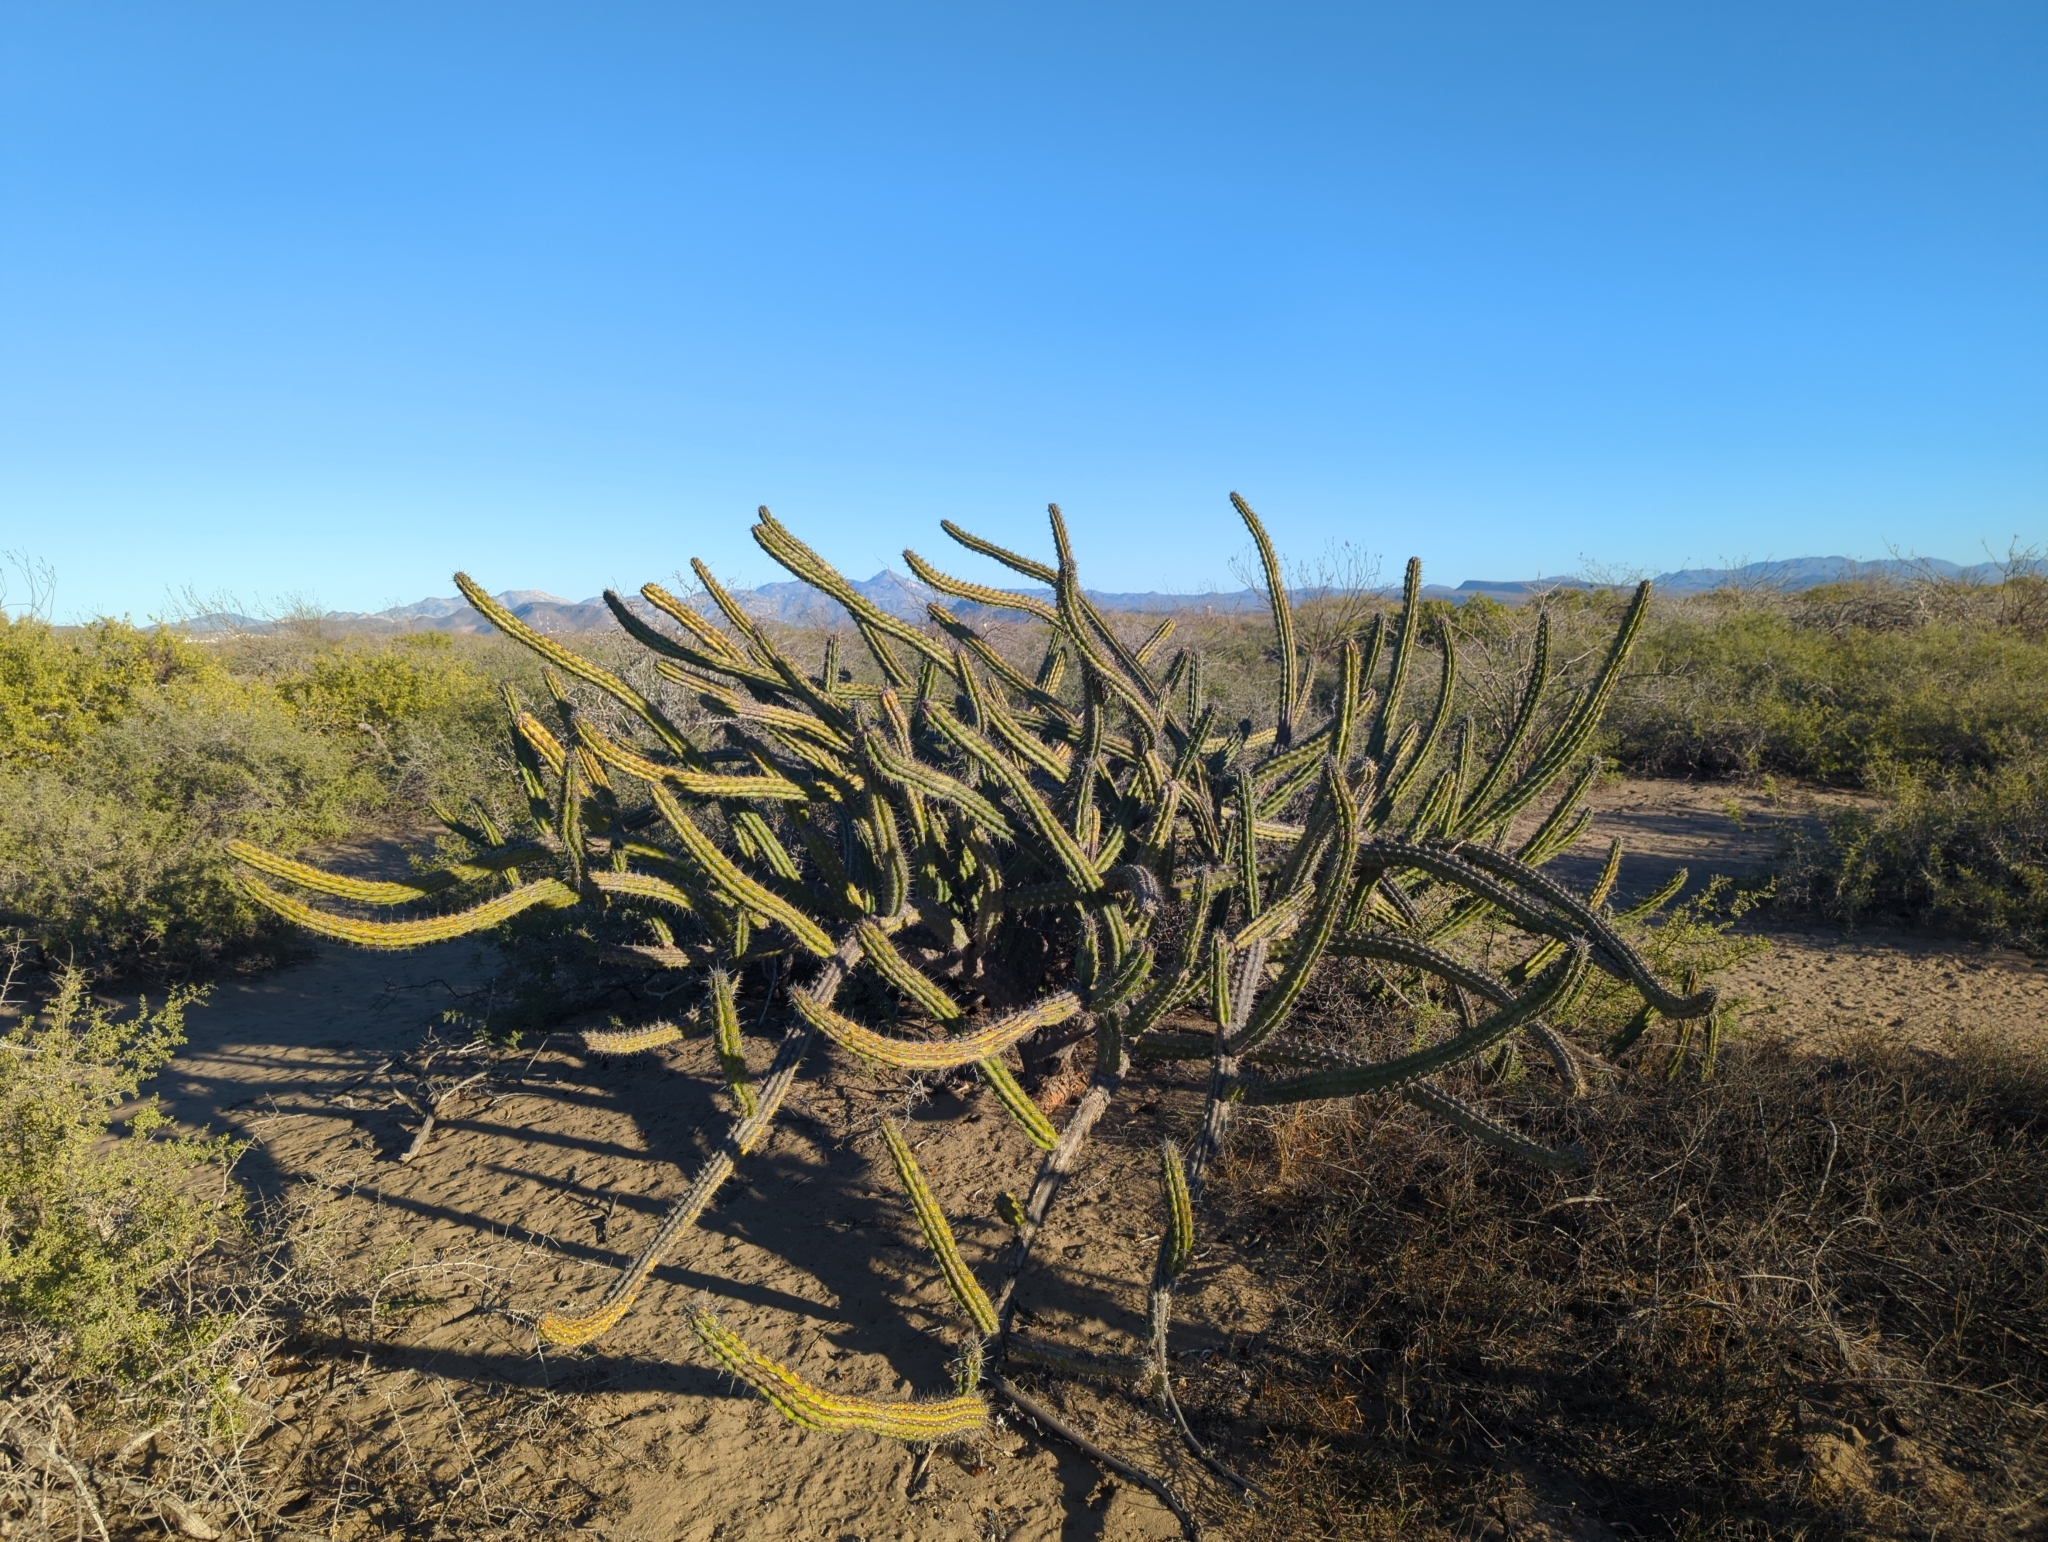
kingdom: Plantae
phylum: Tracheophyta
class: Magnoliopsida
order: Caryophyllales
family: Cactaceae
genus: Stenocereus
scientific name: Stenocereus gummosus
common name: Dagger cactus
